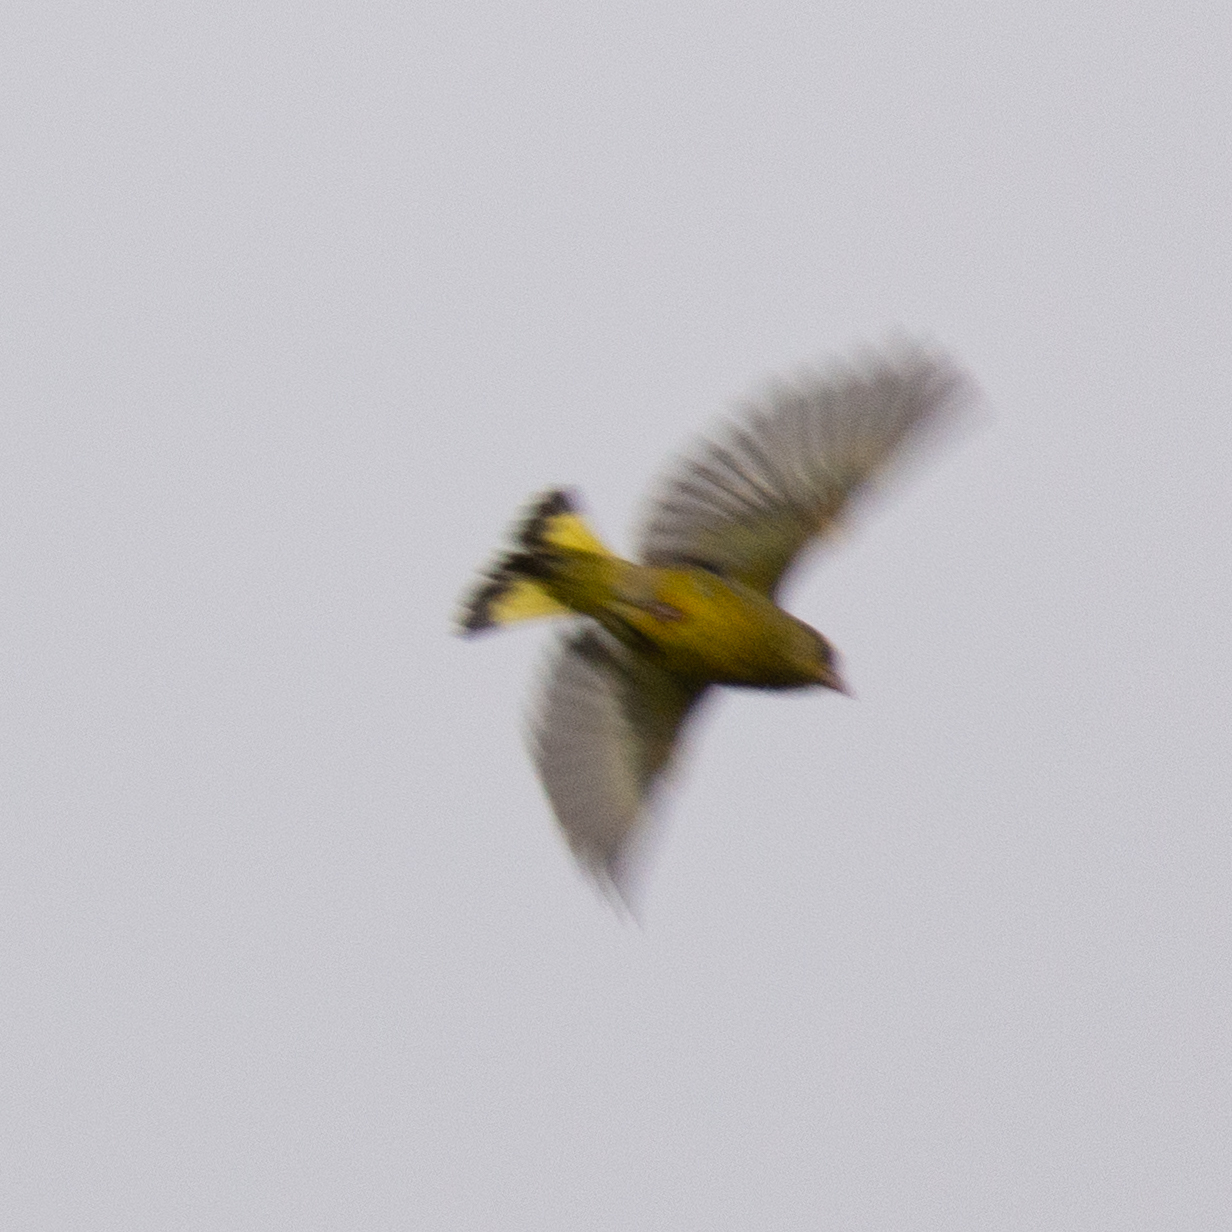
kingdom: Plantae
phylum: Tracheophyta
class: Liliopsida
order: Poales
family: Poaceae
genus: Chloris
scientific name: Chloris chloris
